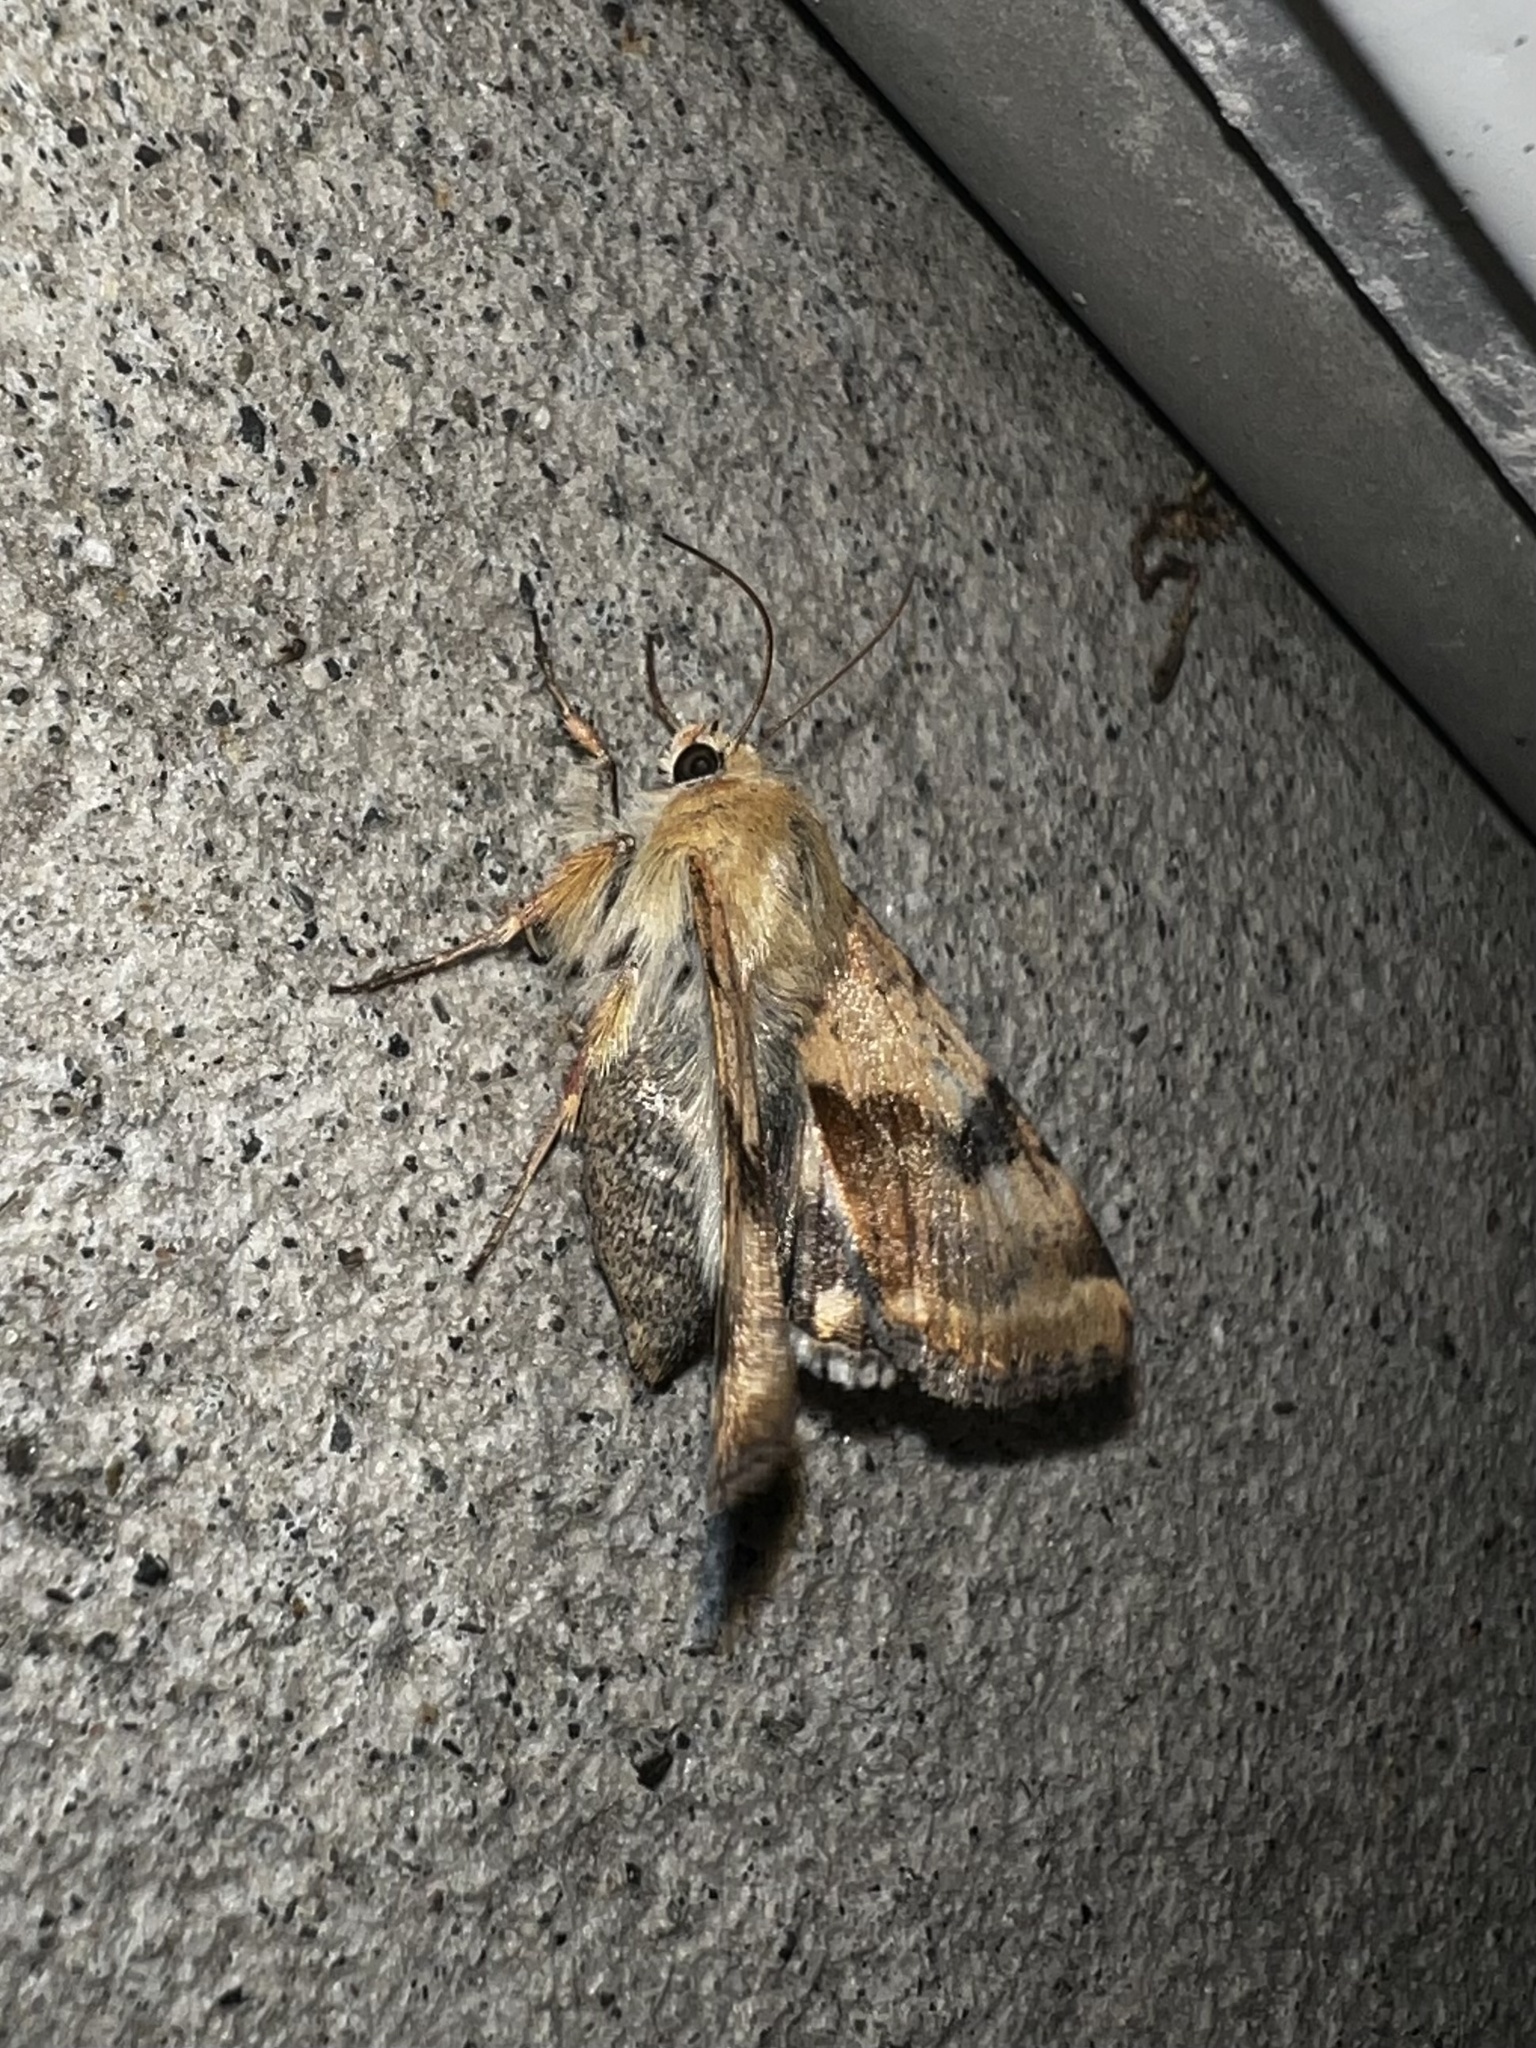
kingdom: Animalia
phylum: Arthropoda
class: Insecta
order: Lepidoptera
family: Noctuidae
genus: Heliothis
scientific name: Heliothis phloxiphaga
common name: Darker spotted straw moth
